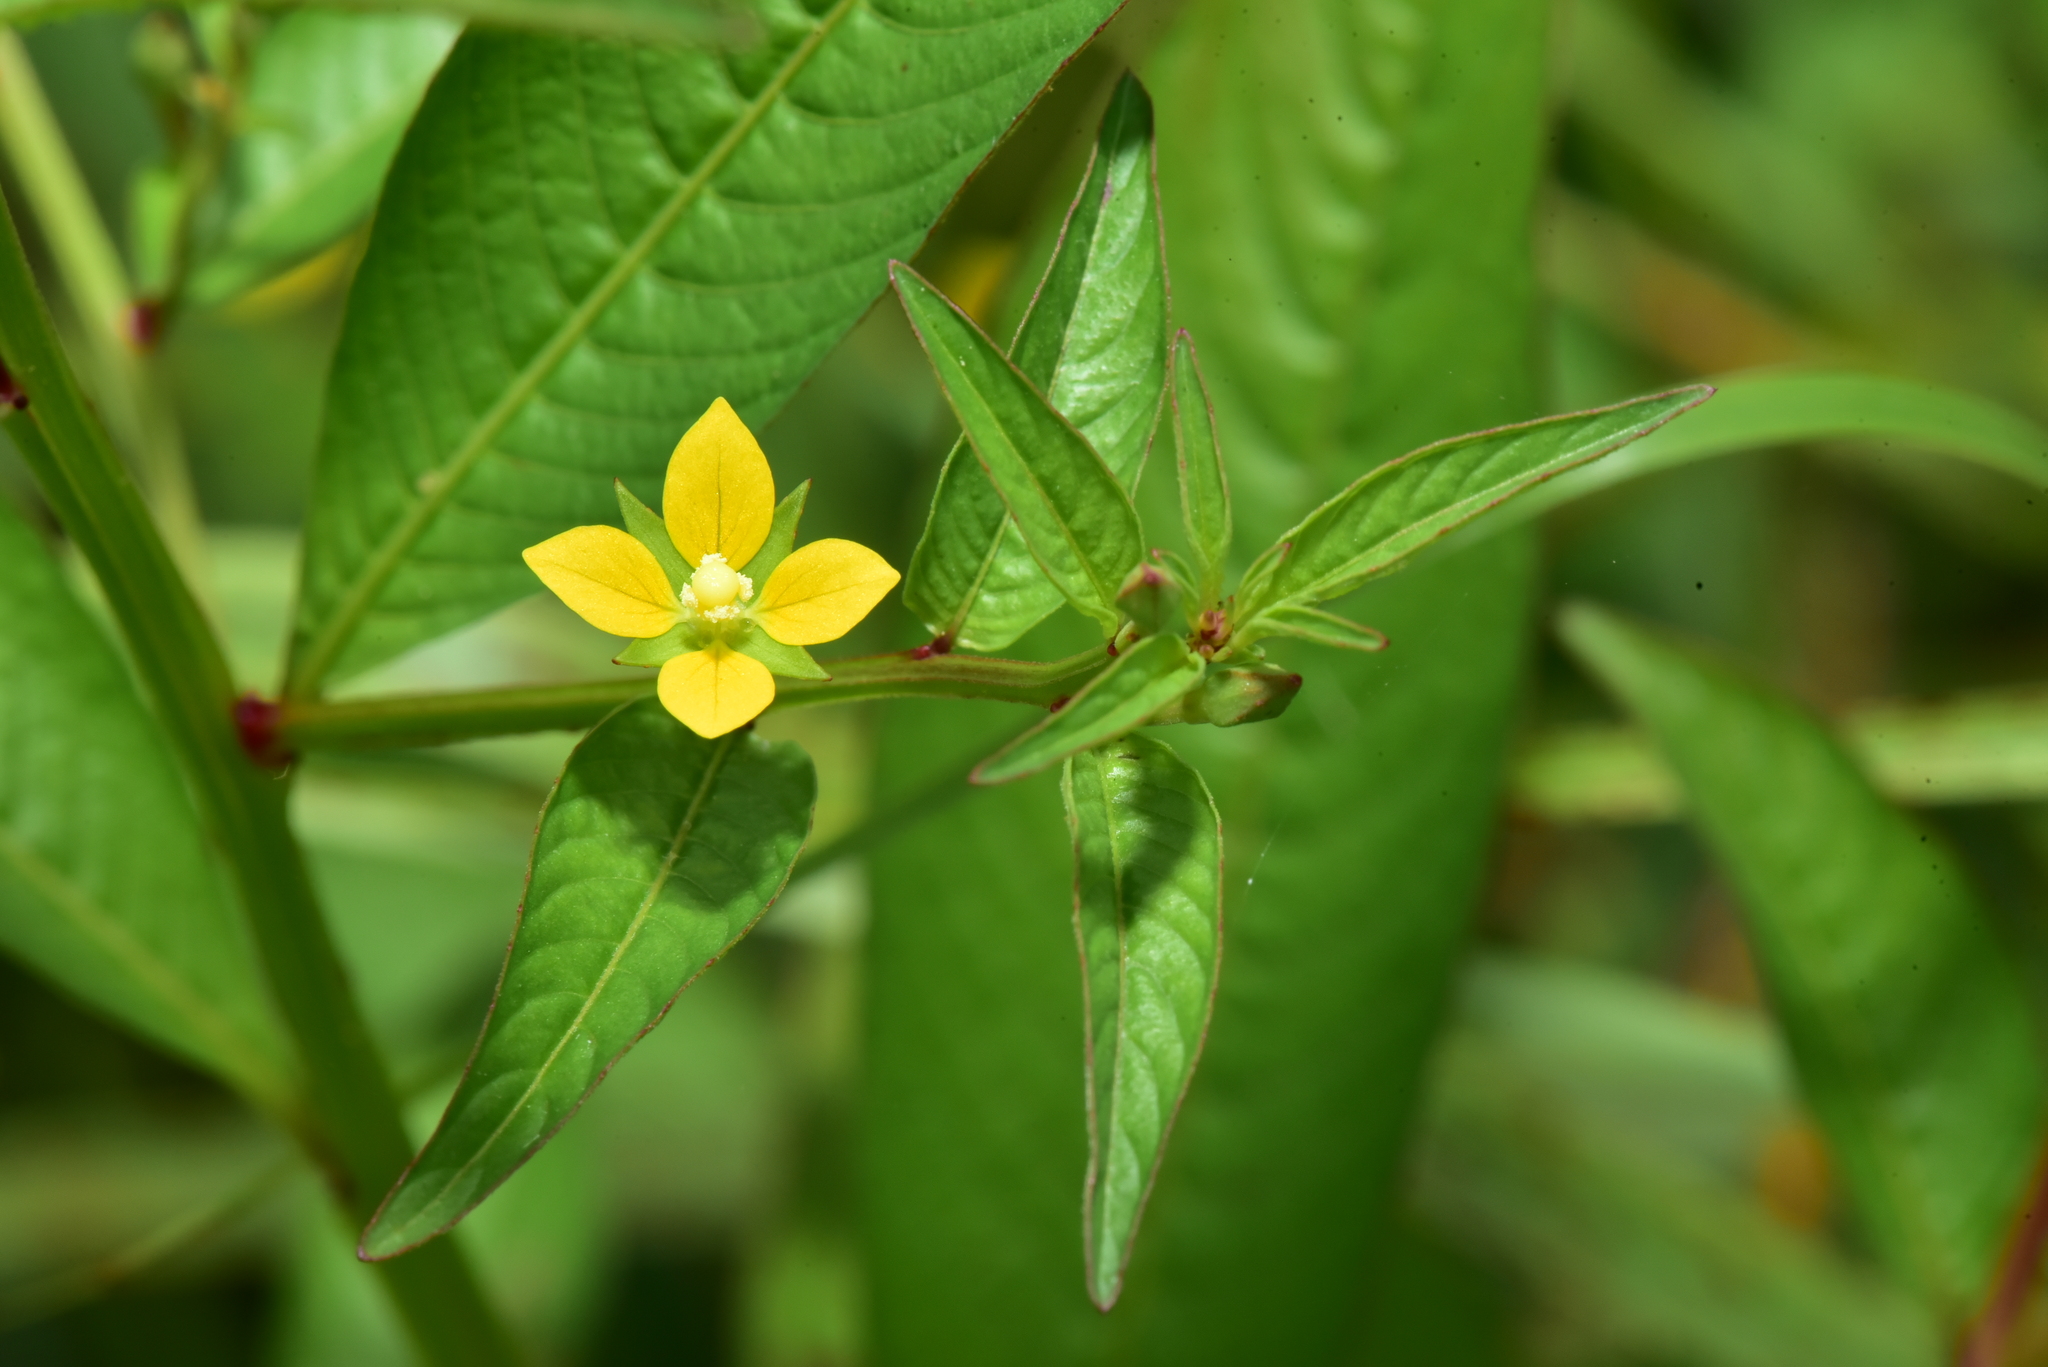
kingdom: Plantae
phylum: Tracheophyta
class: Magnoliopsida
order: Myrtales
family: Onagraceae
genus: Ludwigia
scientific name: Ludwigia hyssopifolia
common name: Linear leaf water primrose
